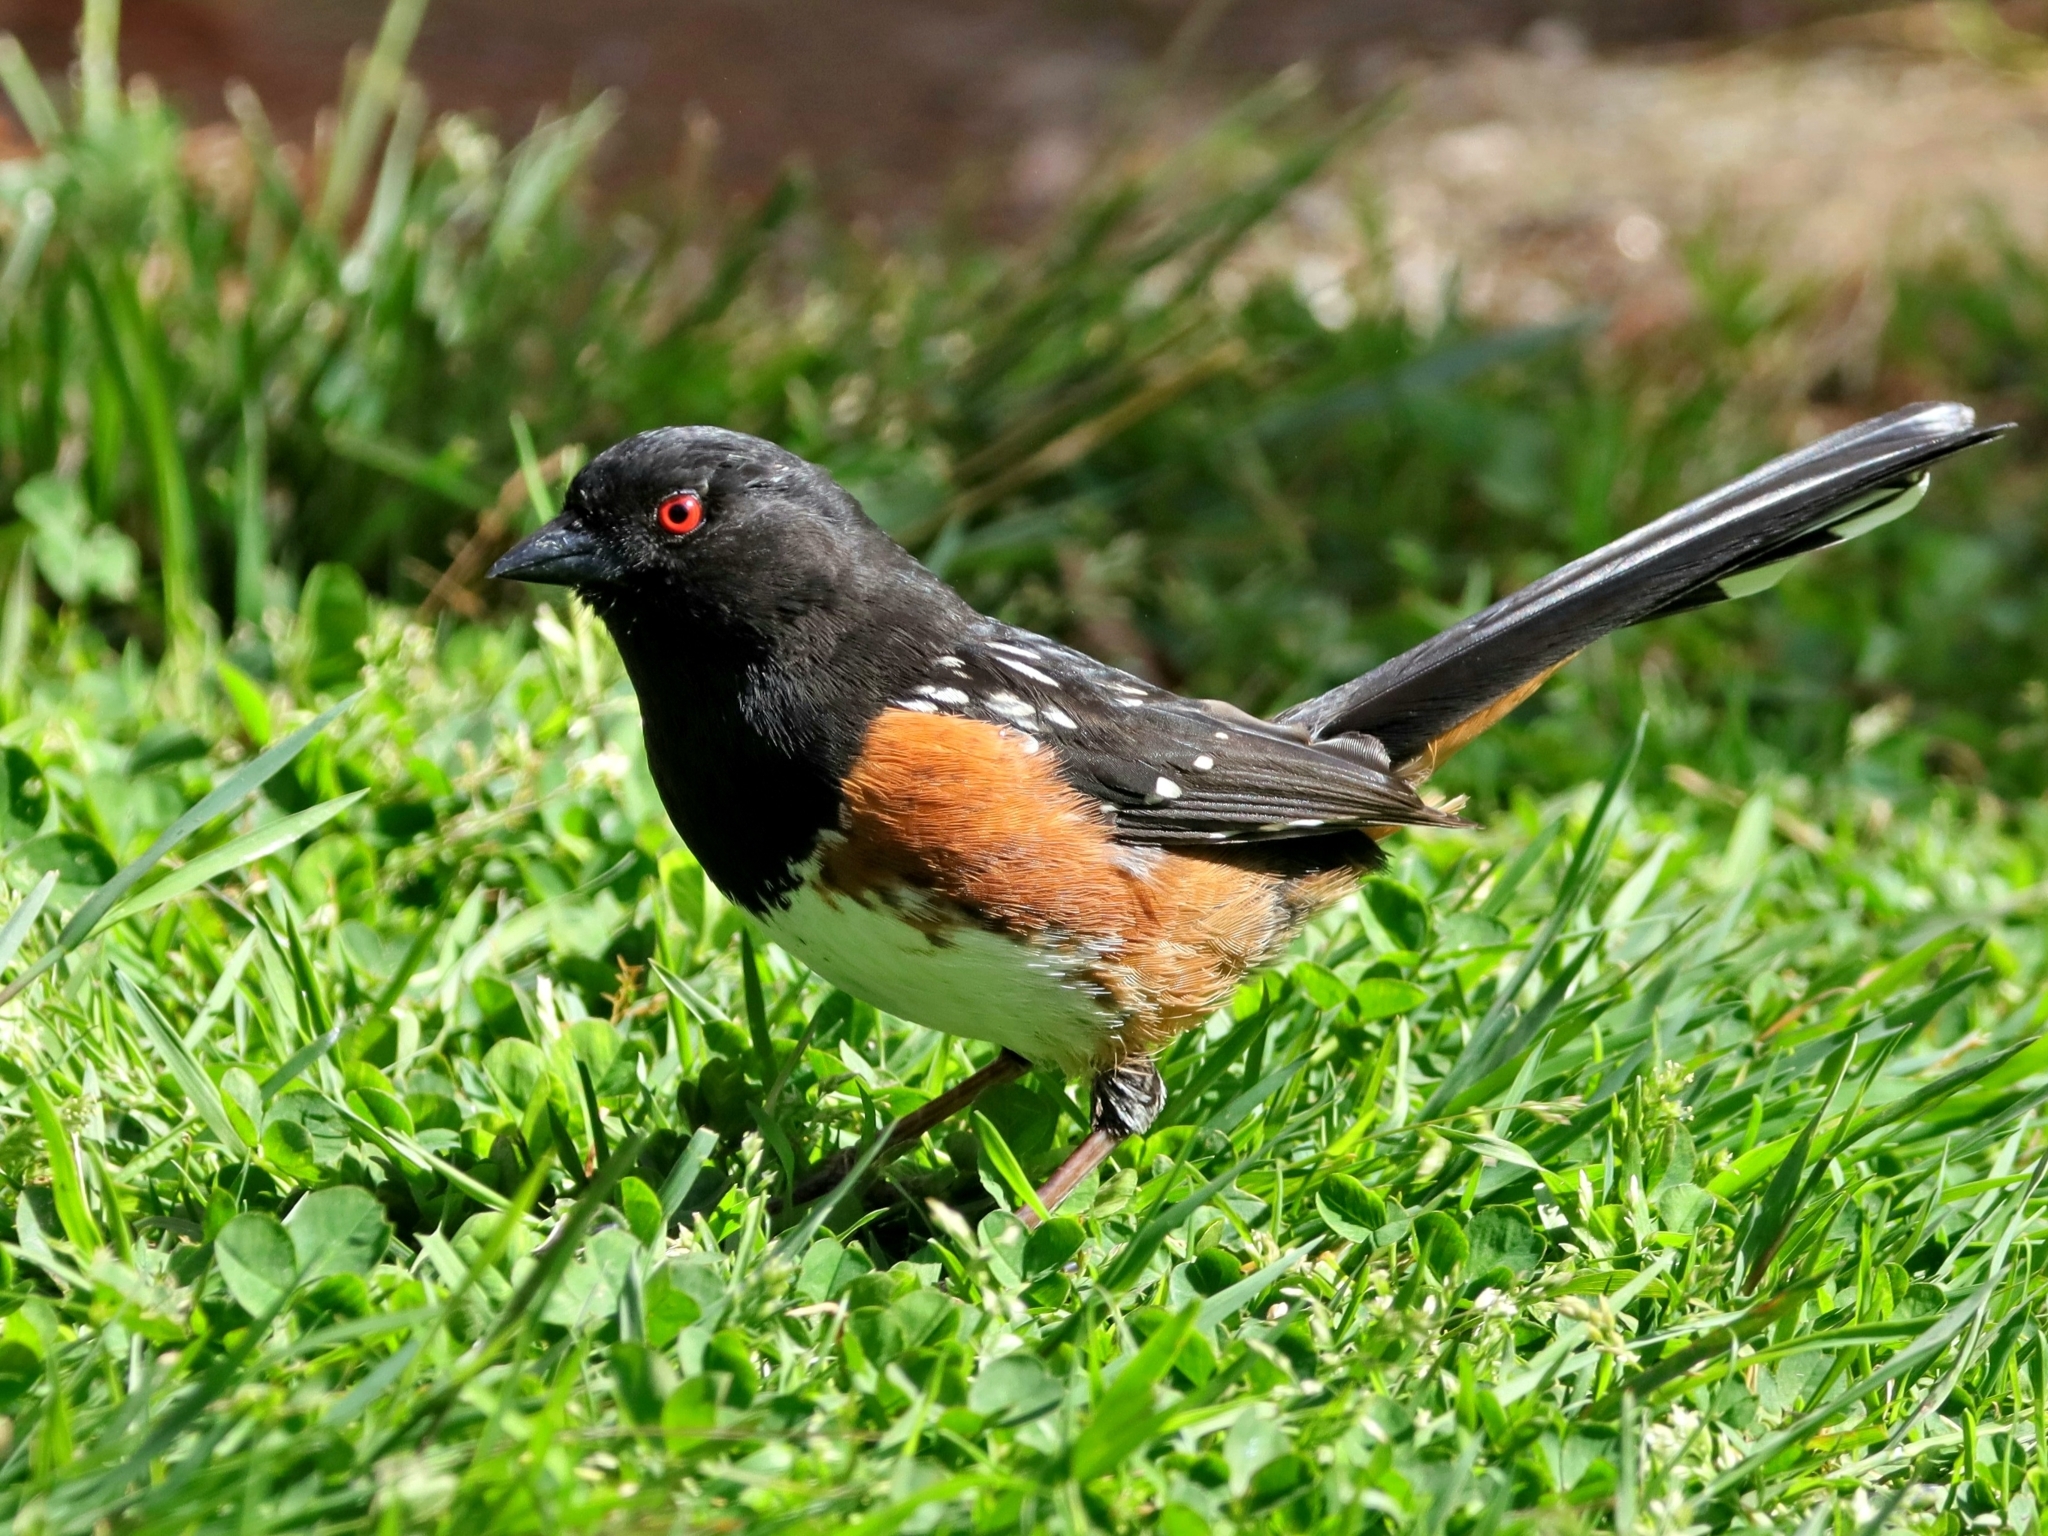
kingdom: Animalia
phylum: Chordata
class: Aves
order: Passeriformes
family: Passerellidae
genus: Pipilo
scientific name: Pipilo maculatus
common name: Spotted towhee
